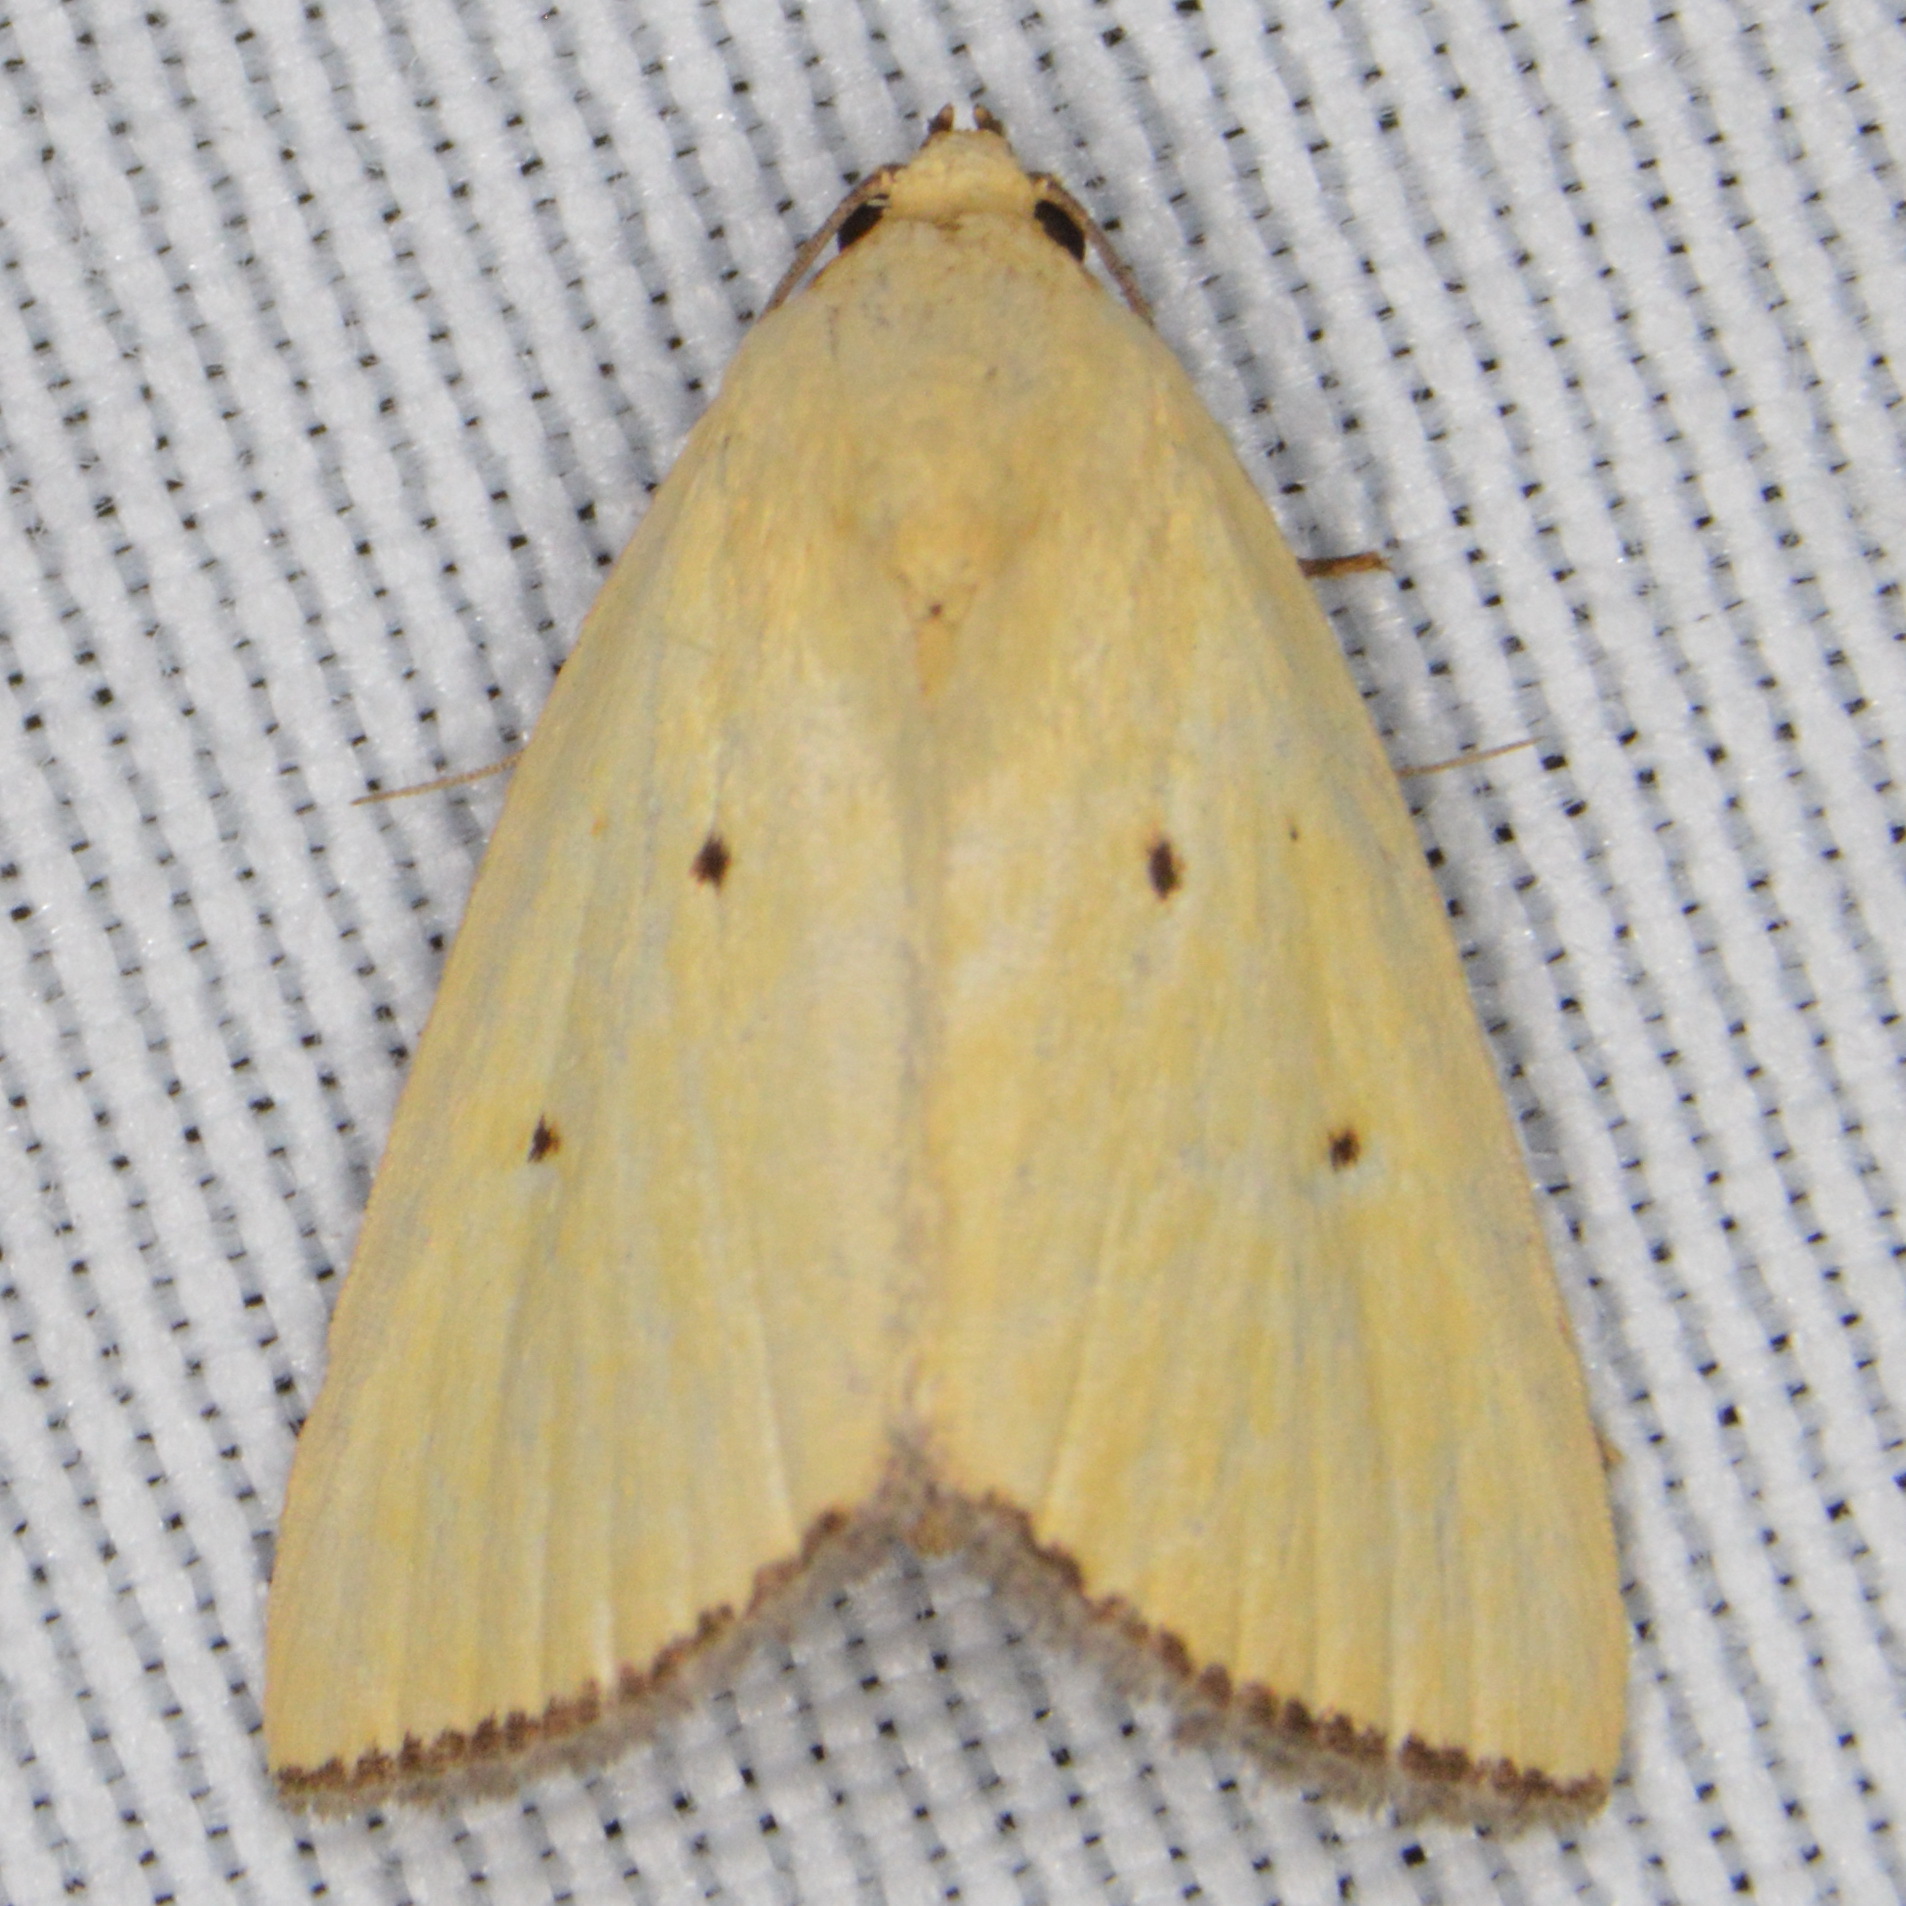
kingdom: Animalia
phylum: Arthropoda
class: Insecta
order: Lepidoptera
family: Noctuidae
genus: Marimatha
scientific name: Marimatha nigrofimbria
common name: Black-bordered lemon moth
